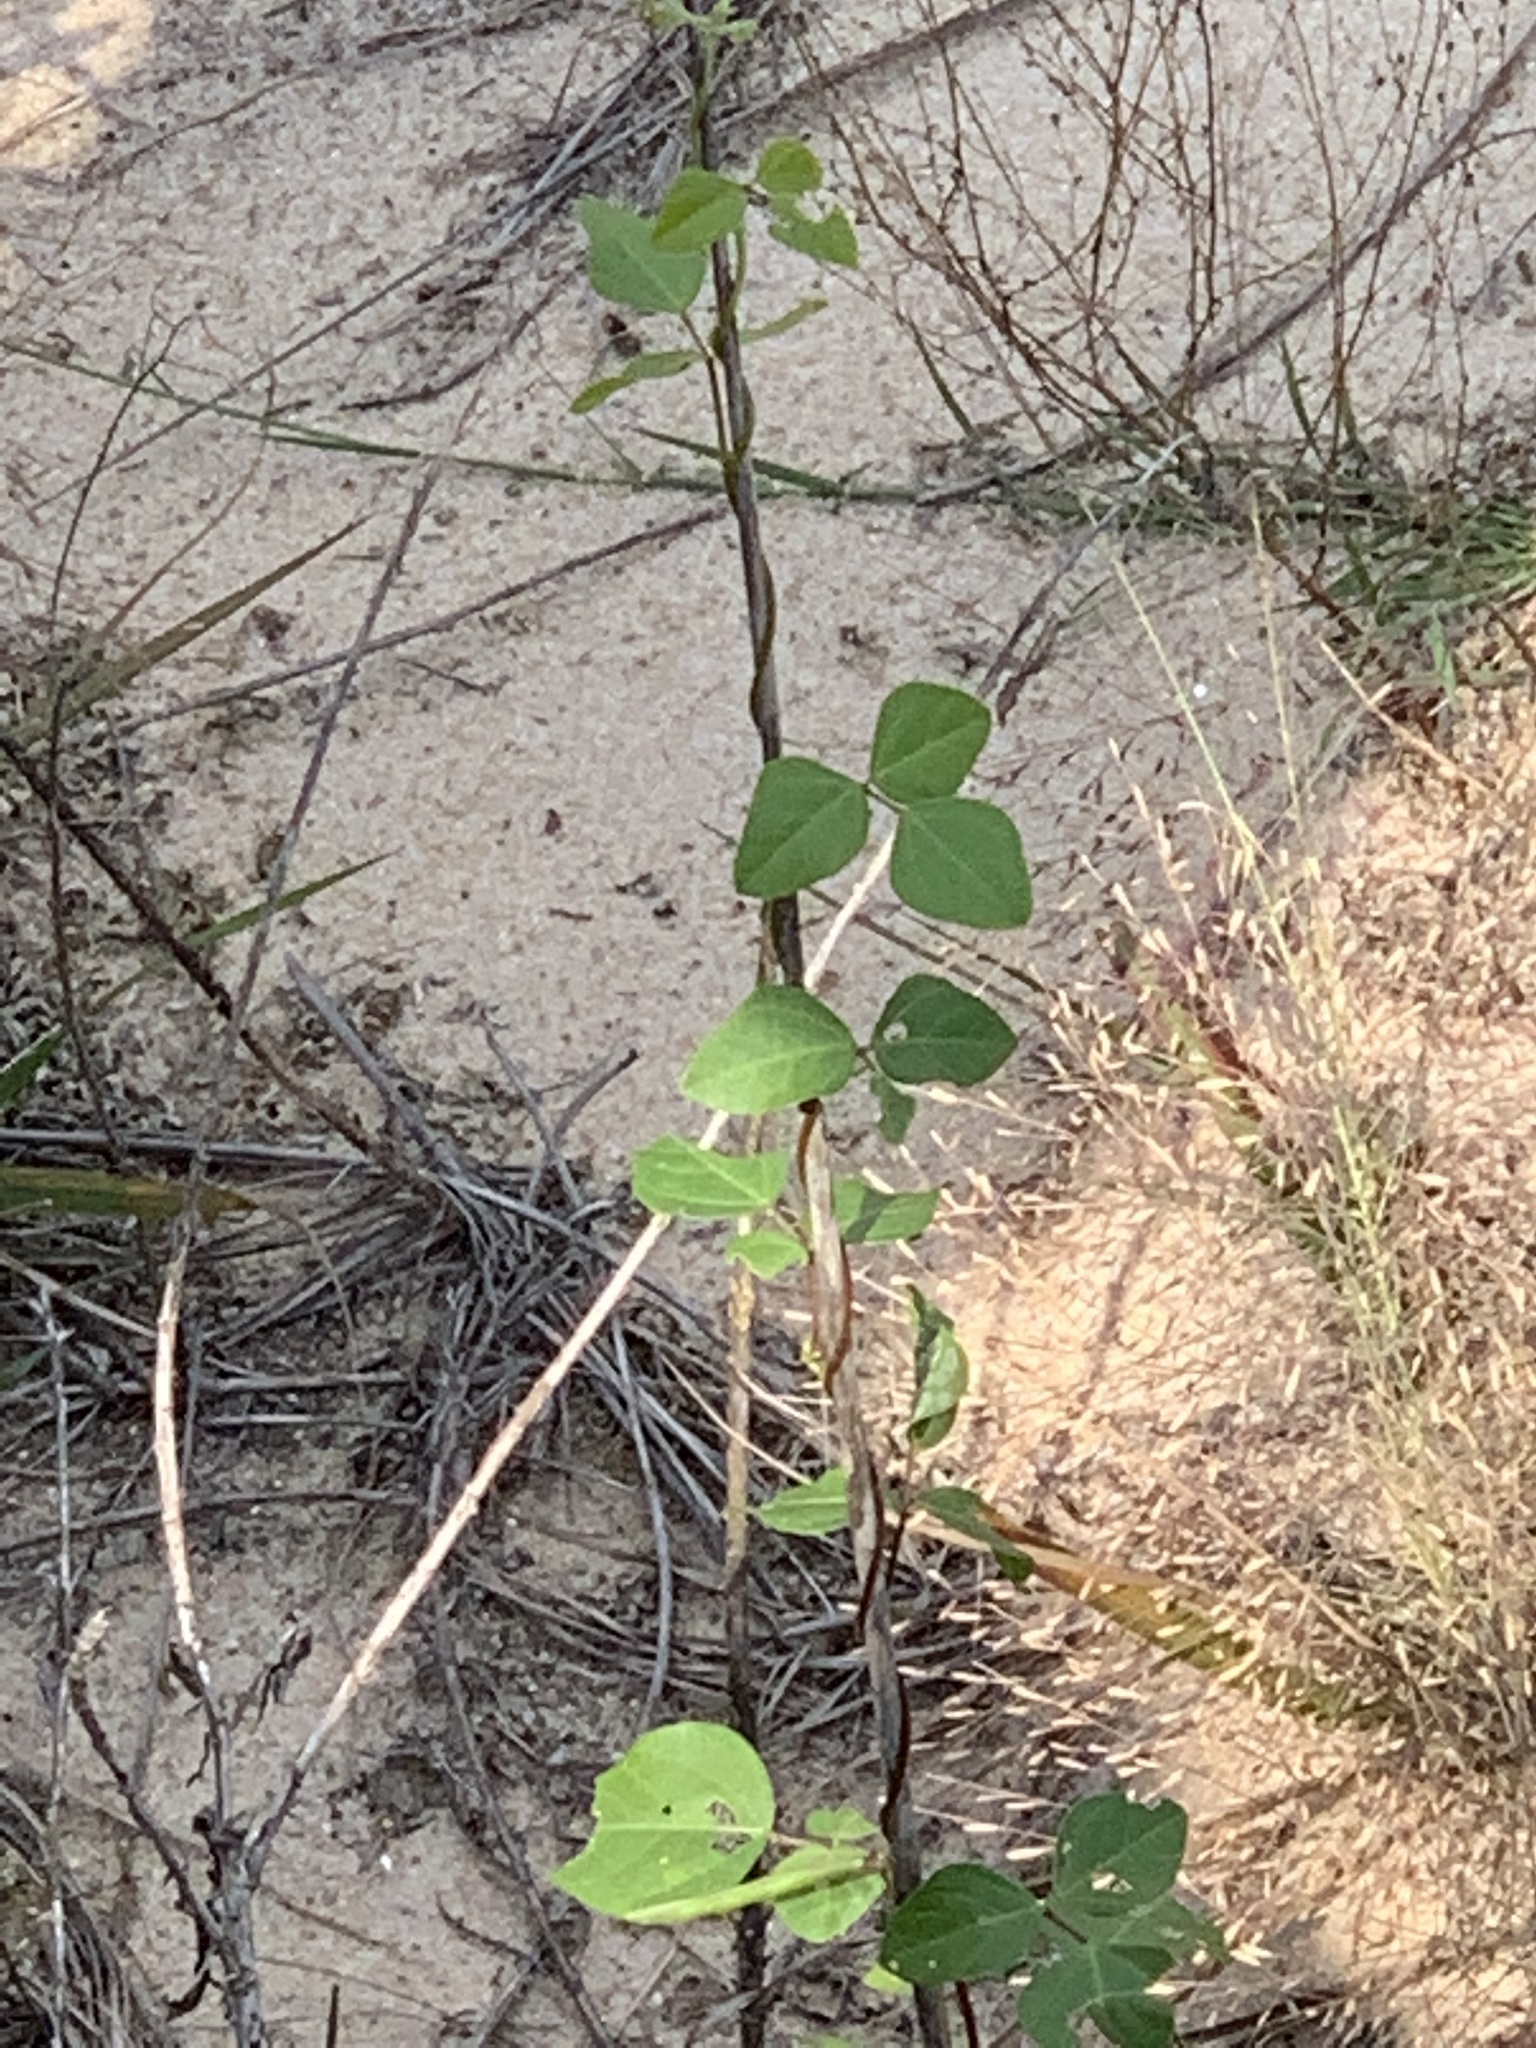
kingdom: Plantae
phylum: Tracheophyta
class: Magnoliopsida
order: Fabales
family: Fabaceae
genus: Strophostyles
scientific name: Strophostyles helvola
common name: Trailing wild bean
